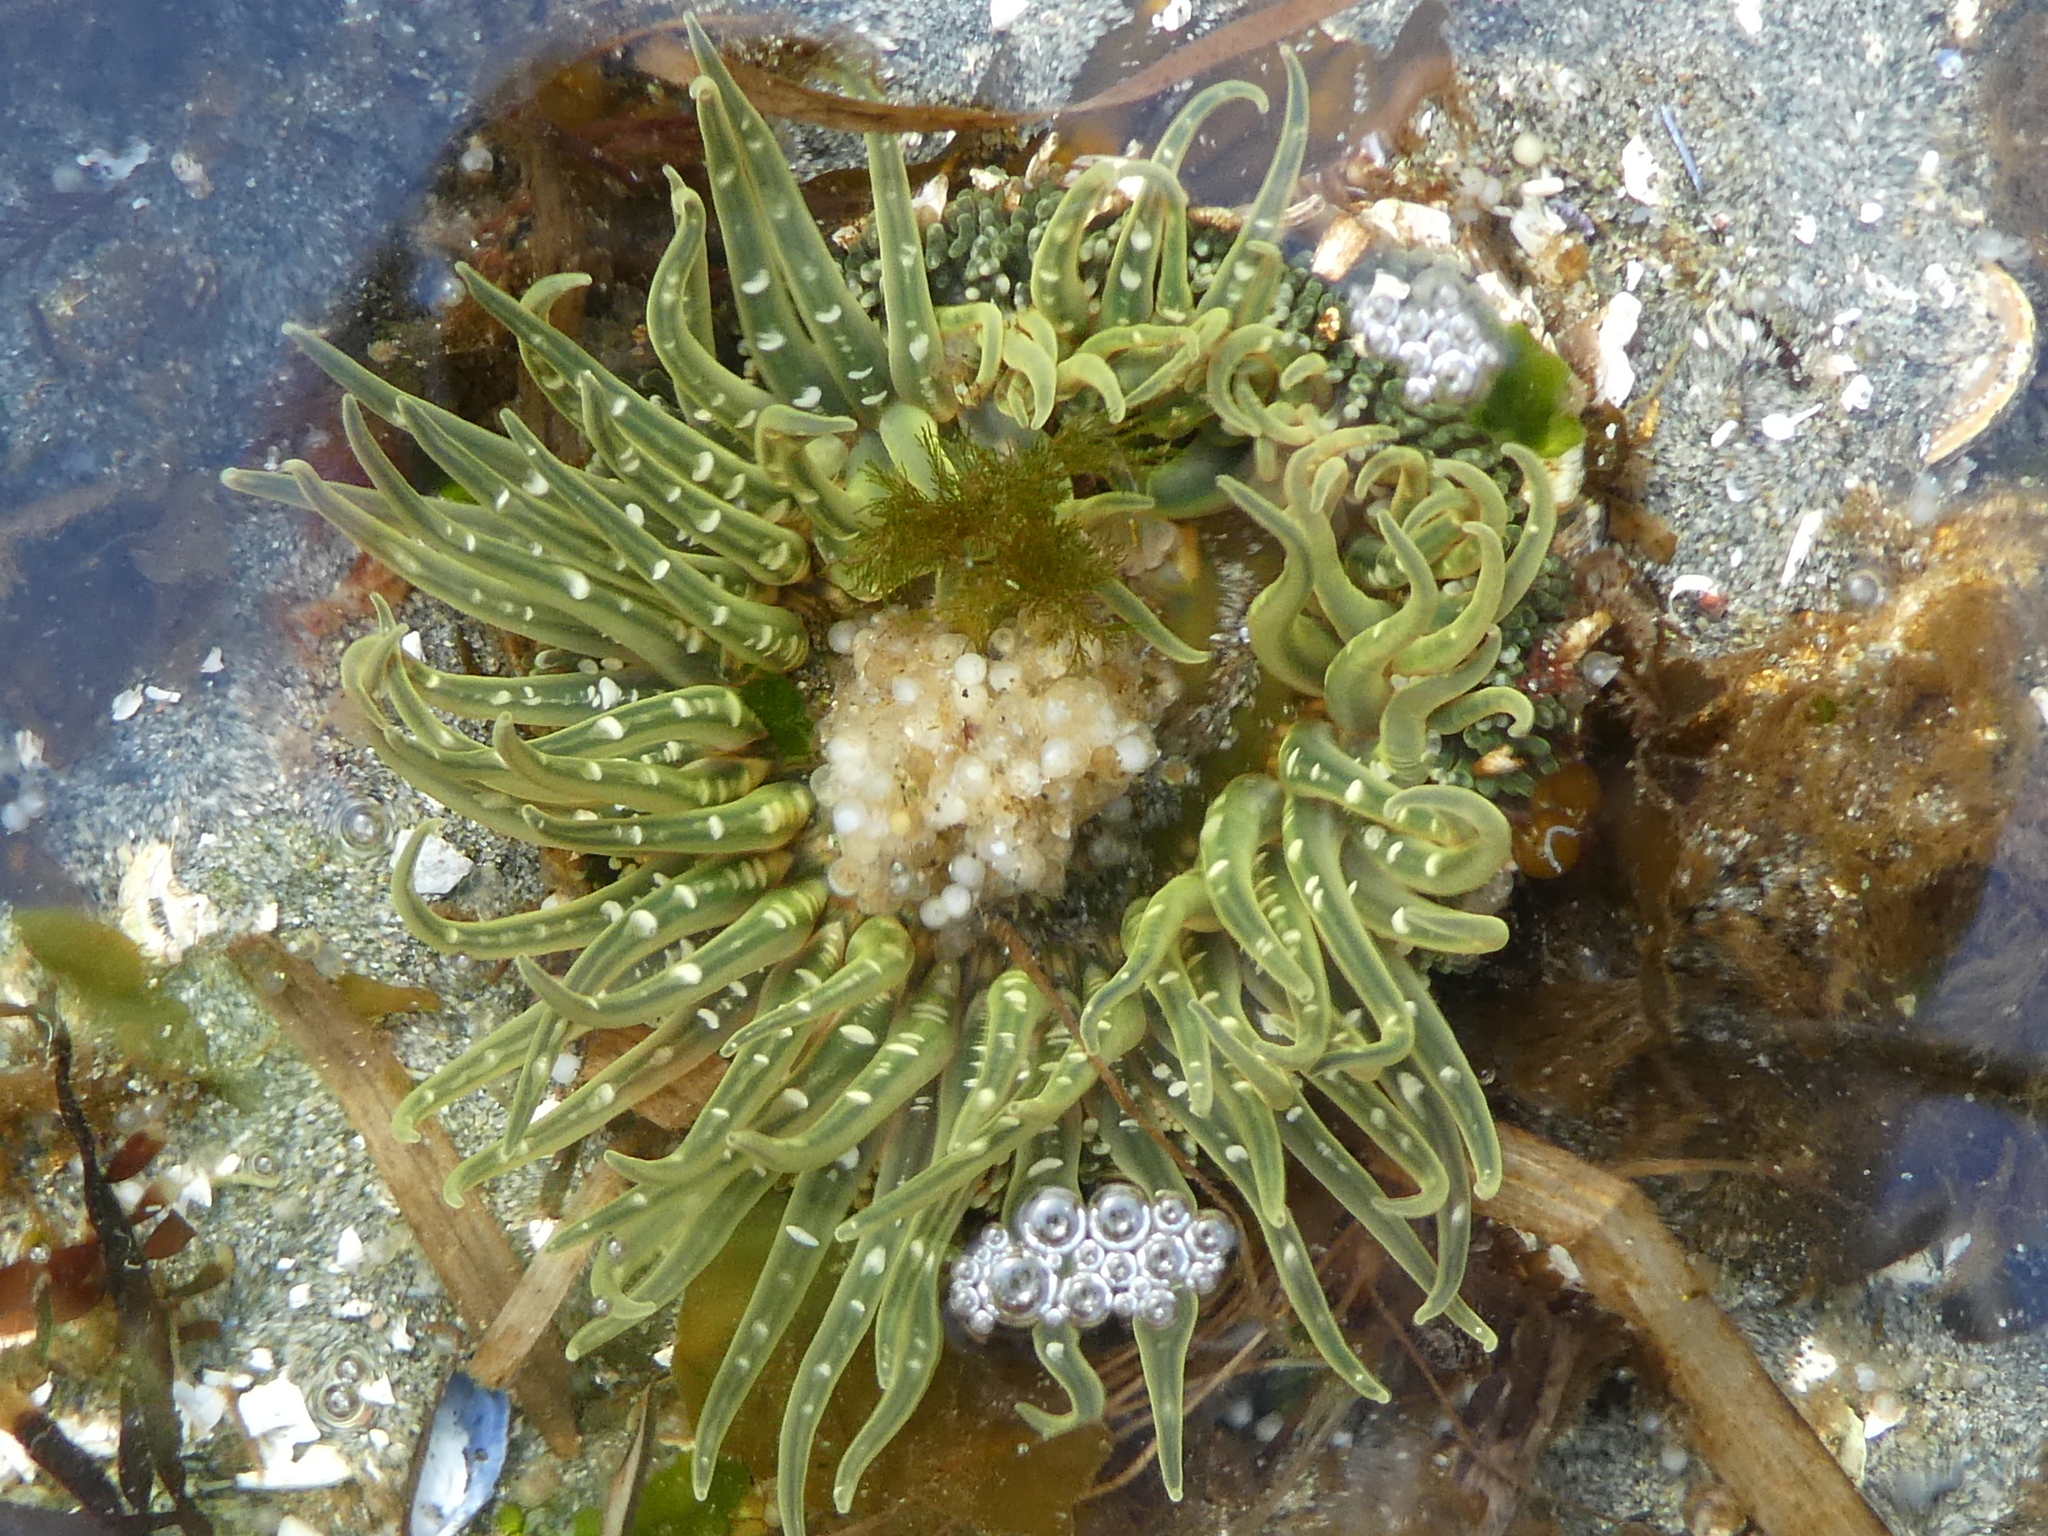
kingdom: Animalia
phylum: Cnidaria
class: Anthozoa
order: Actiniaria
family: Actiniidae
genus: Anthopleura
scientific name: Anthopleura artemisia
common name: Buried sea anemone
